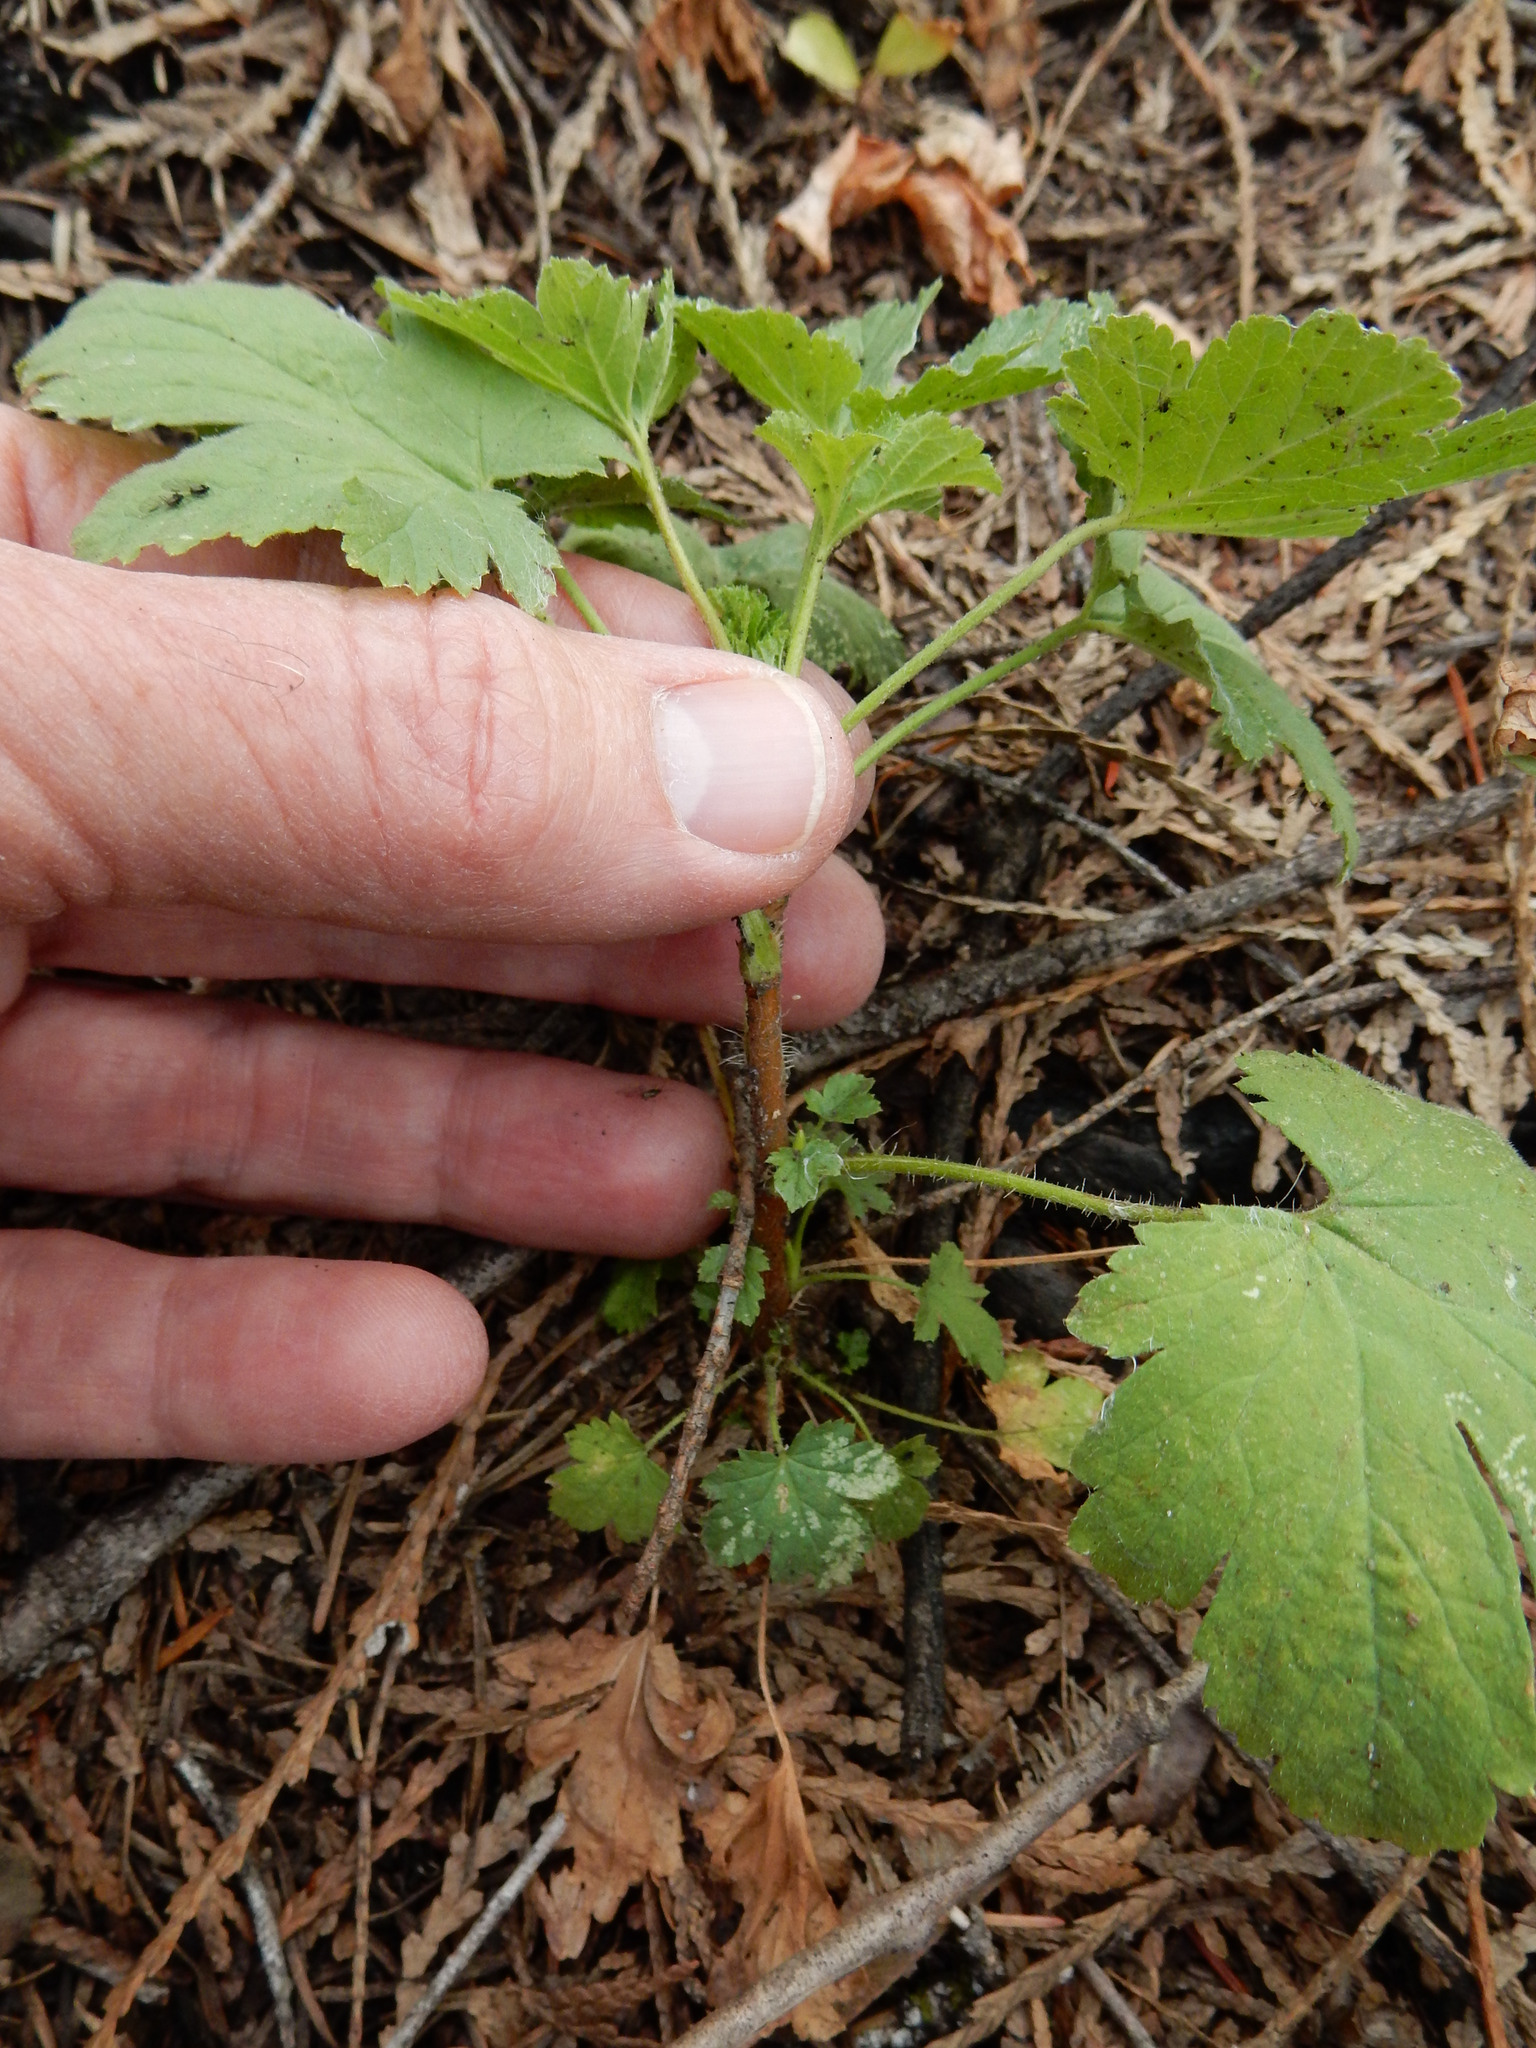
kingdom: Plantae
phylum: Tracheophyta
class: Magnoliopsida
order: Saxifragales
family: Grossulariaceae
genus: Ribes
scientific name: Ribes divaricatum
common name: Wild black gooseberry
